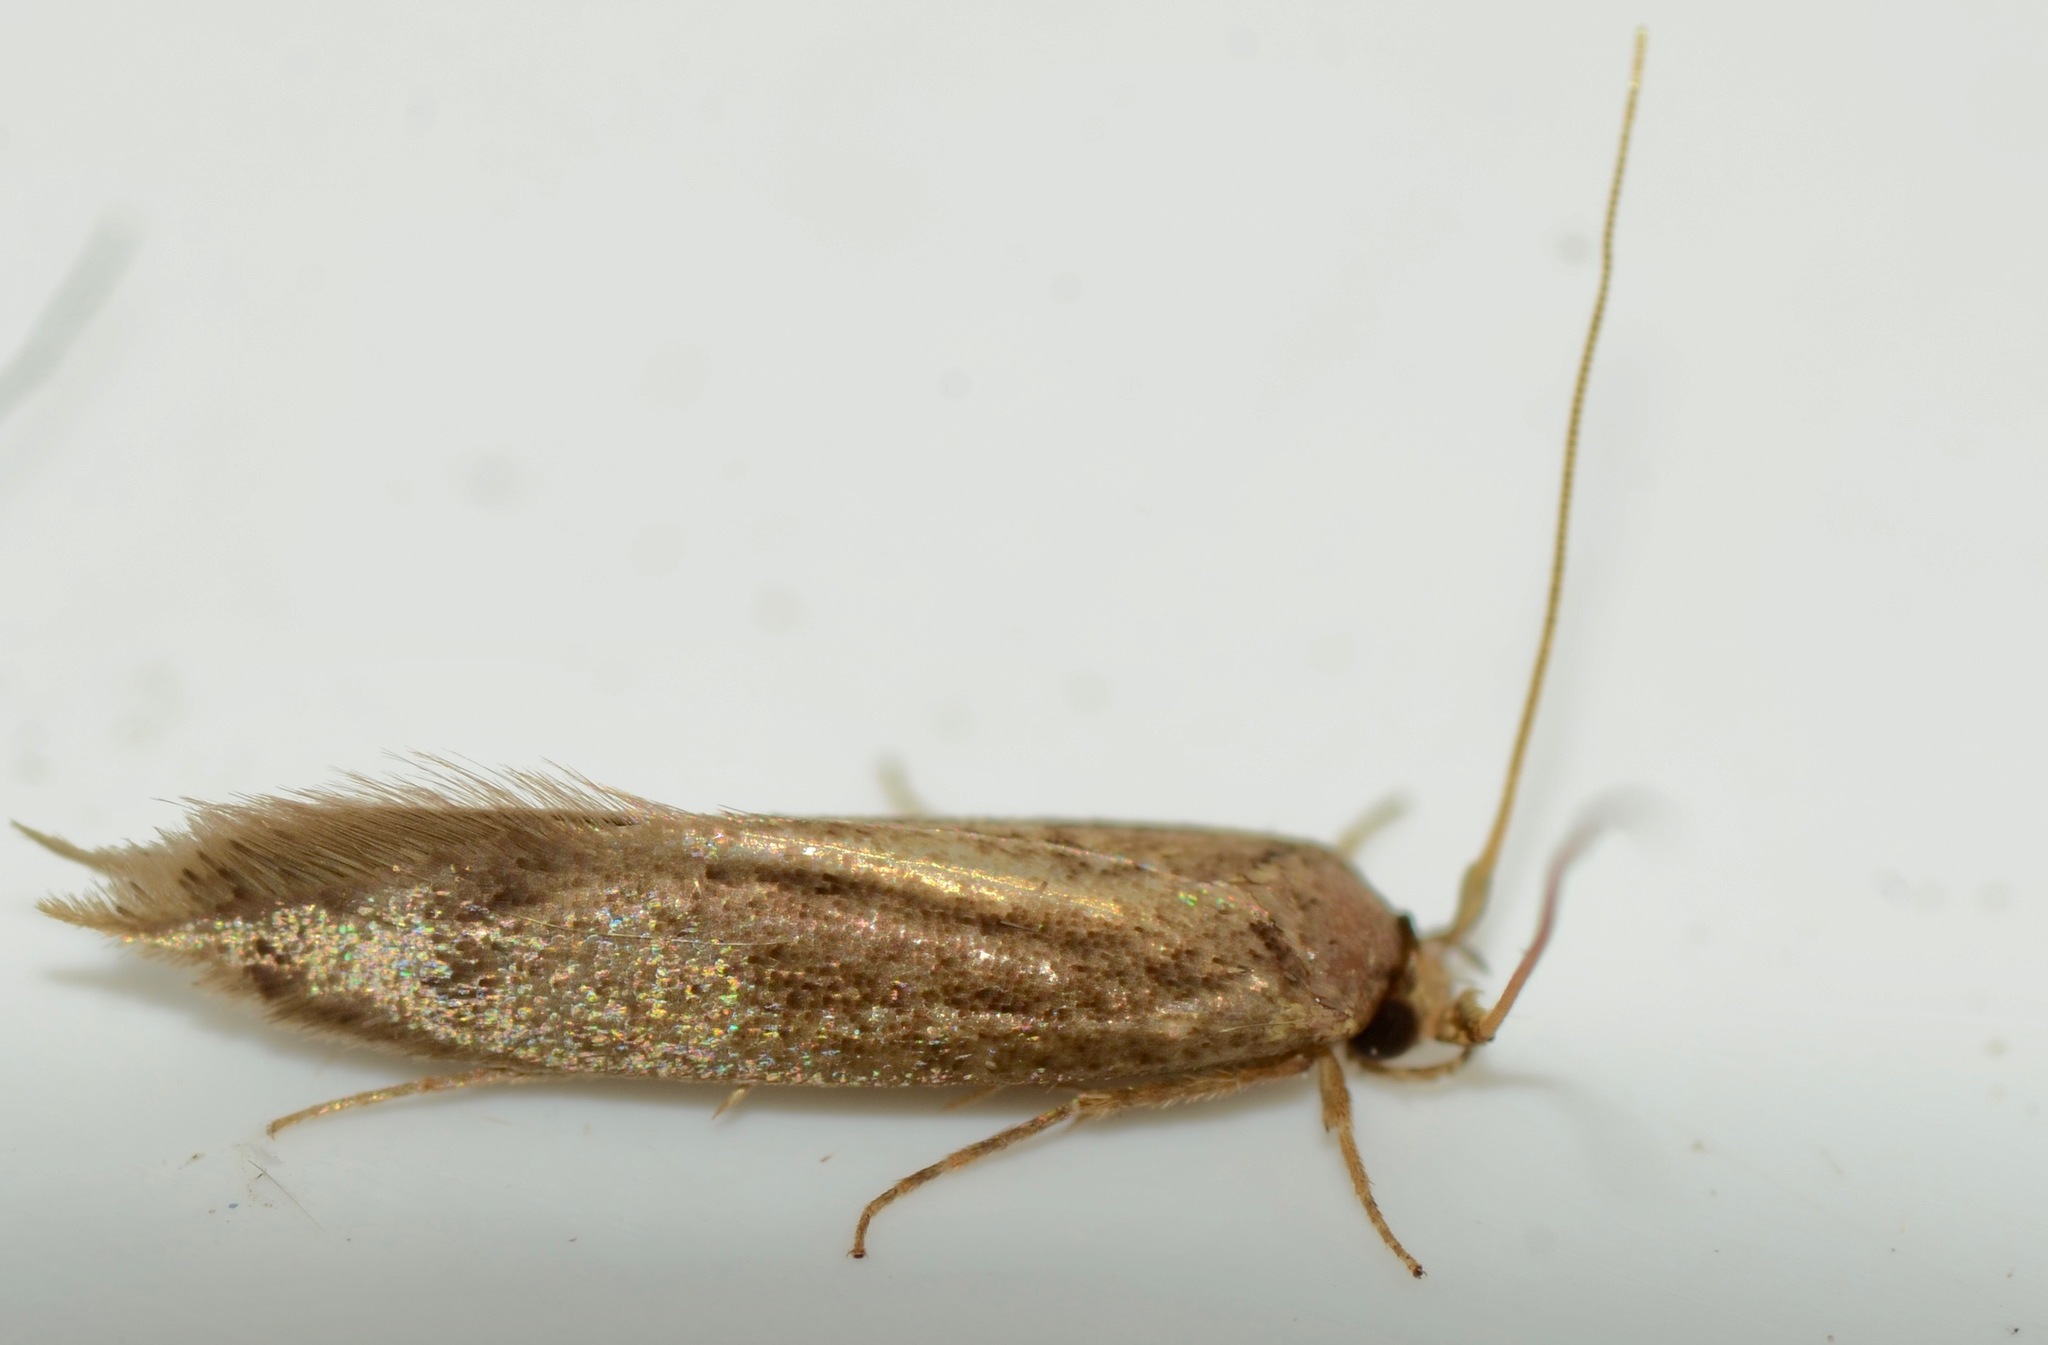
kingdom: Animalia
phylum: Arthropoda
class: Insecta
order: Lepidoptera
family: Tineidae
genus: Opogona
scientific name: Opogona omoscopa
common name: Moth
